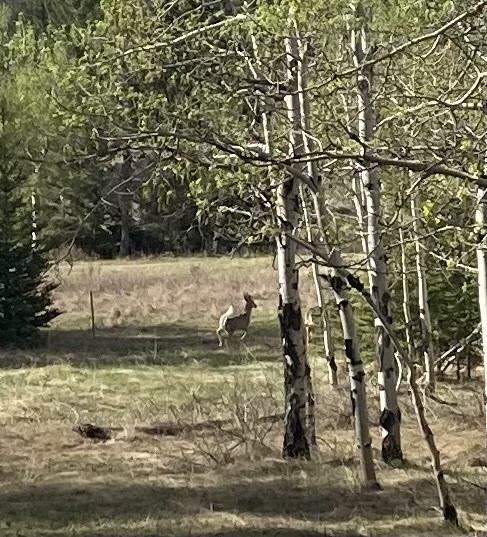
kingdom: Animalia
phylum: Chordata
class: Mammalia
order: Artiodactyla
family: Cervidae
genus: Odocoileus
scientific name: Odocoileus virginianus
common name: White-tailed deer
